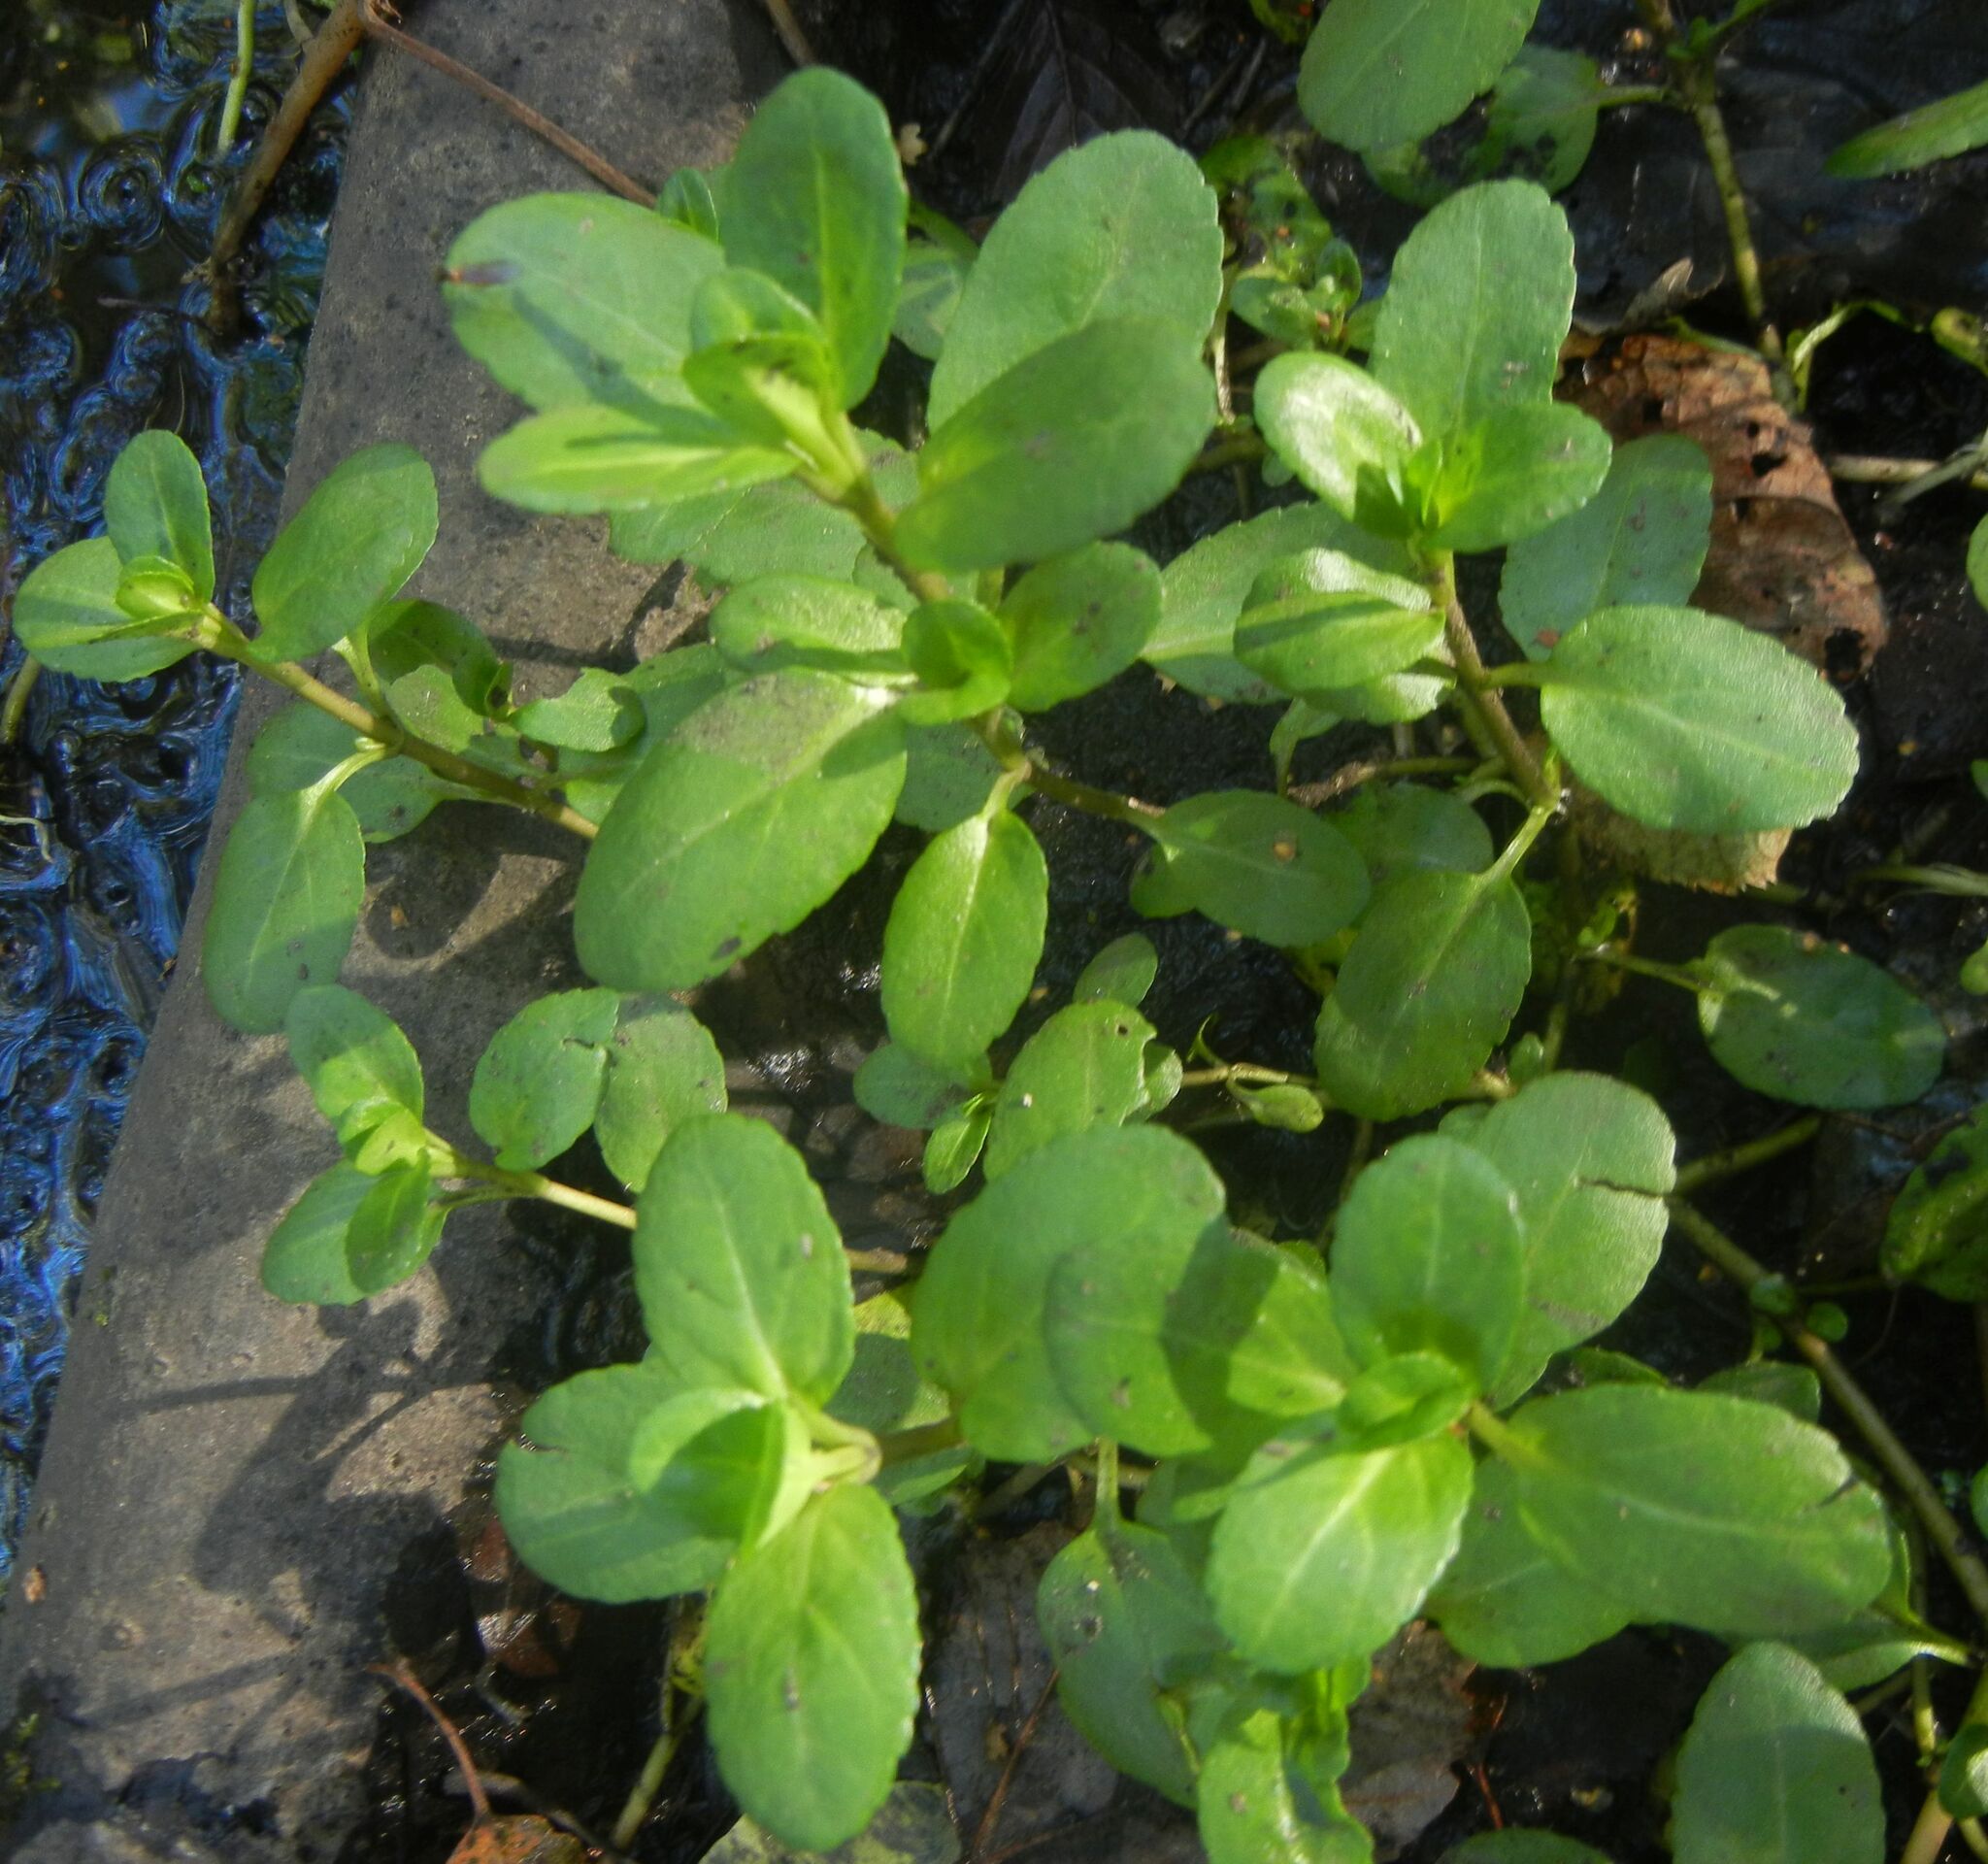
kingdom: Plantae
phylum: Tracheophyta
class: Magnoliopsida
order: Lamiales
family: Plantaginaceae
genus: Veronica
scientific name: Veronica beccabunga
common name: Brooklime
